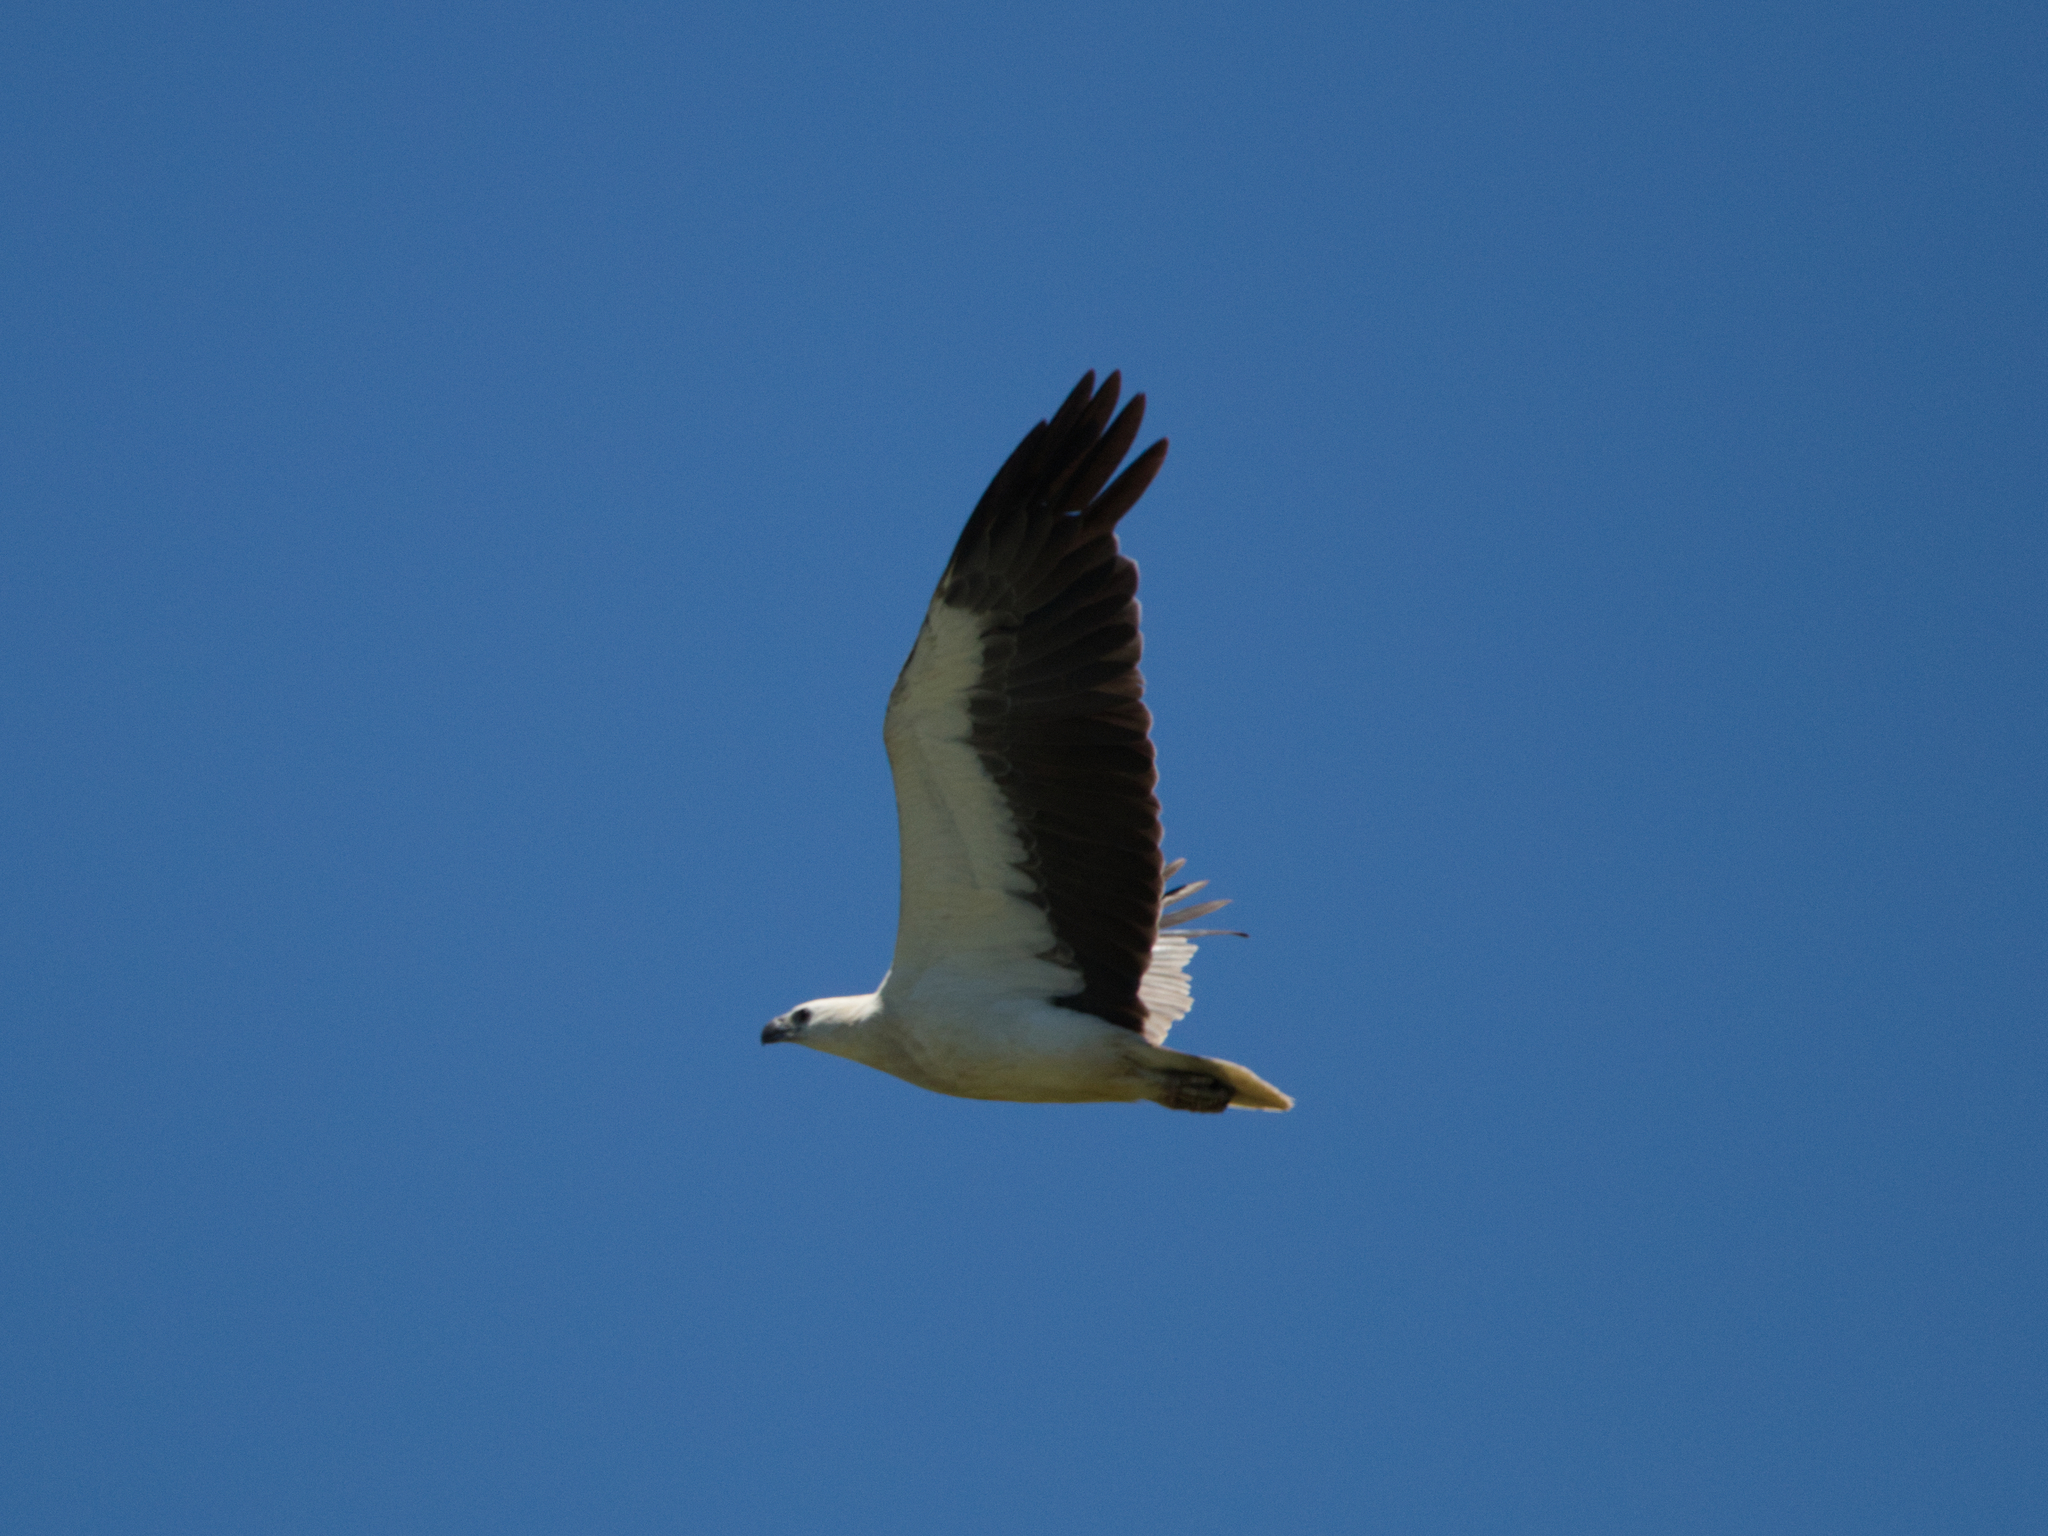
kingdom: Animalia
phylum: Chordata
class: Aves
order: Accipitriformes
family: Accipitridae
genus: Haliaeetus
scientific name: Haliaeetus leucogaster
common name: White-bellied sea eagle
